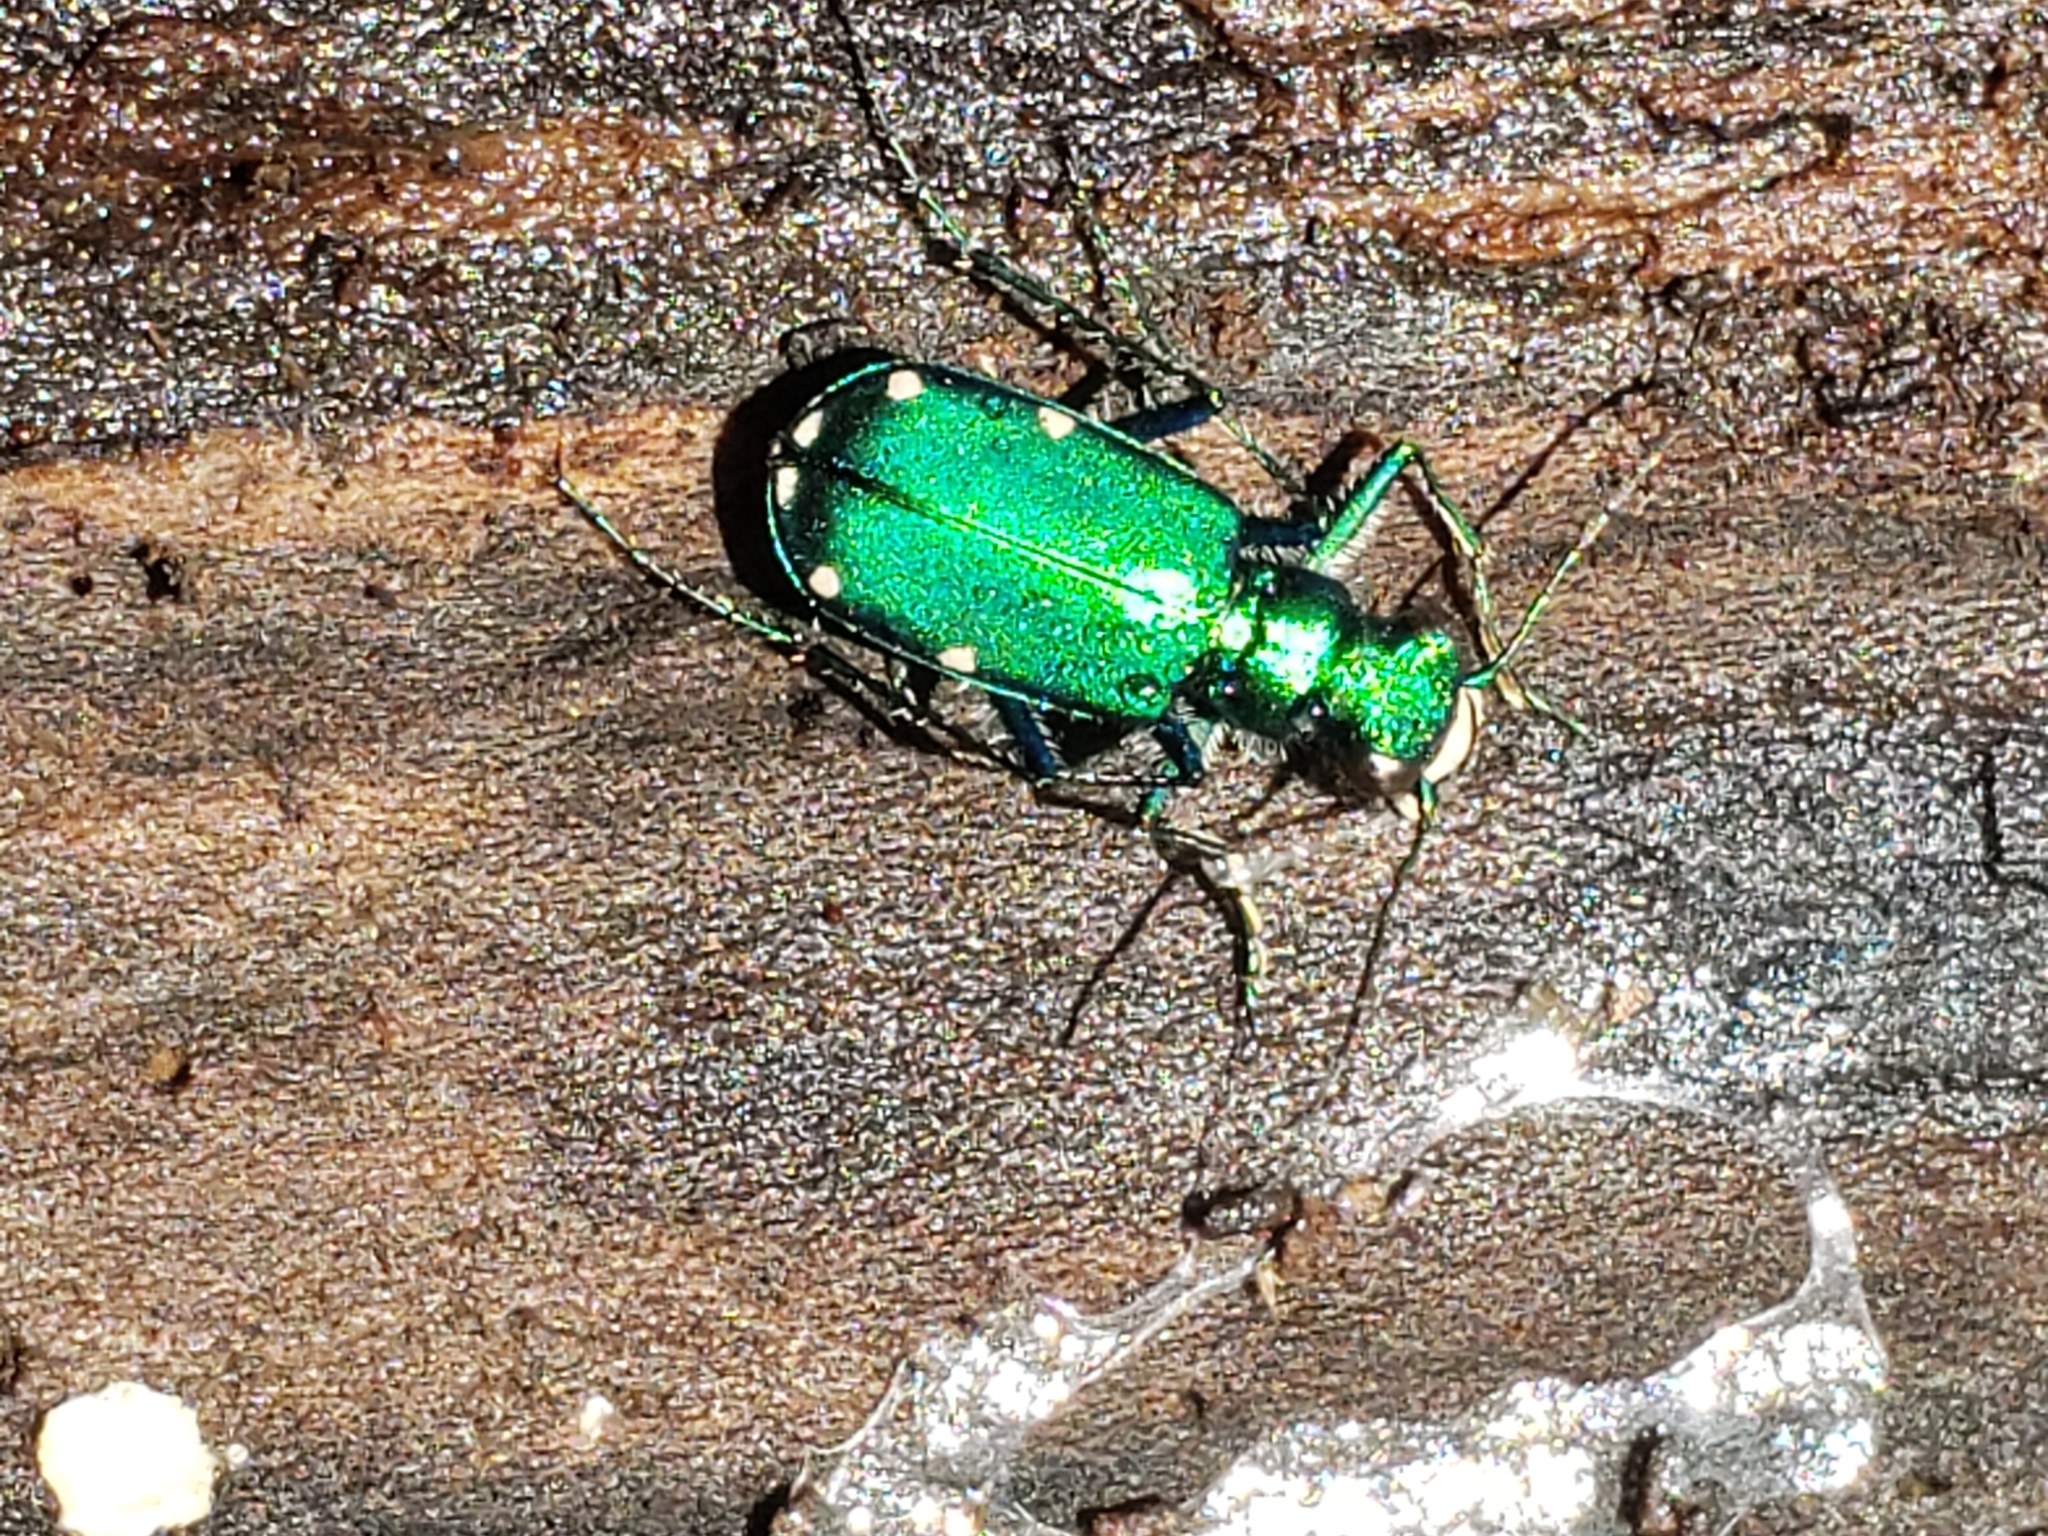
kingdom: Animalia
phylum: Arthropoda
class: Insecta
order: Coleoptera
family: Carabidae
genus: Cicindela
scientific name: Cicindela sexguttata
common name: Six-spotted tiger beetle
